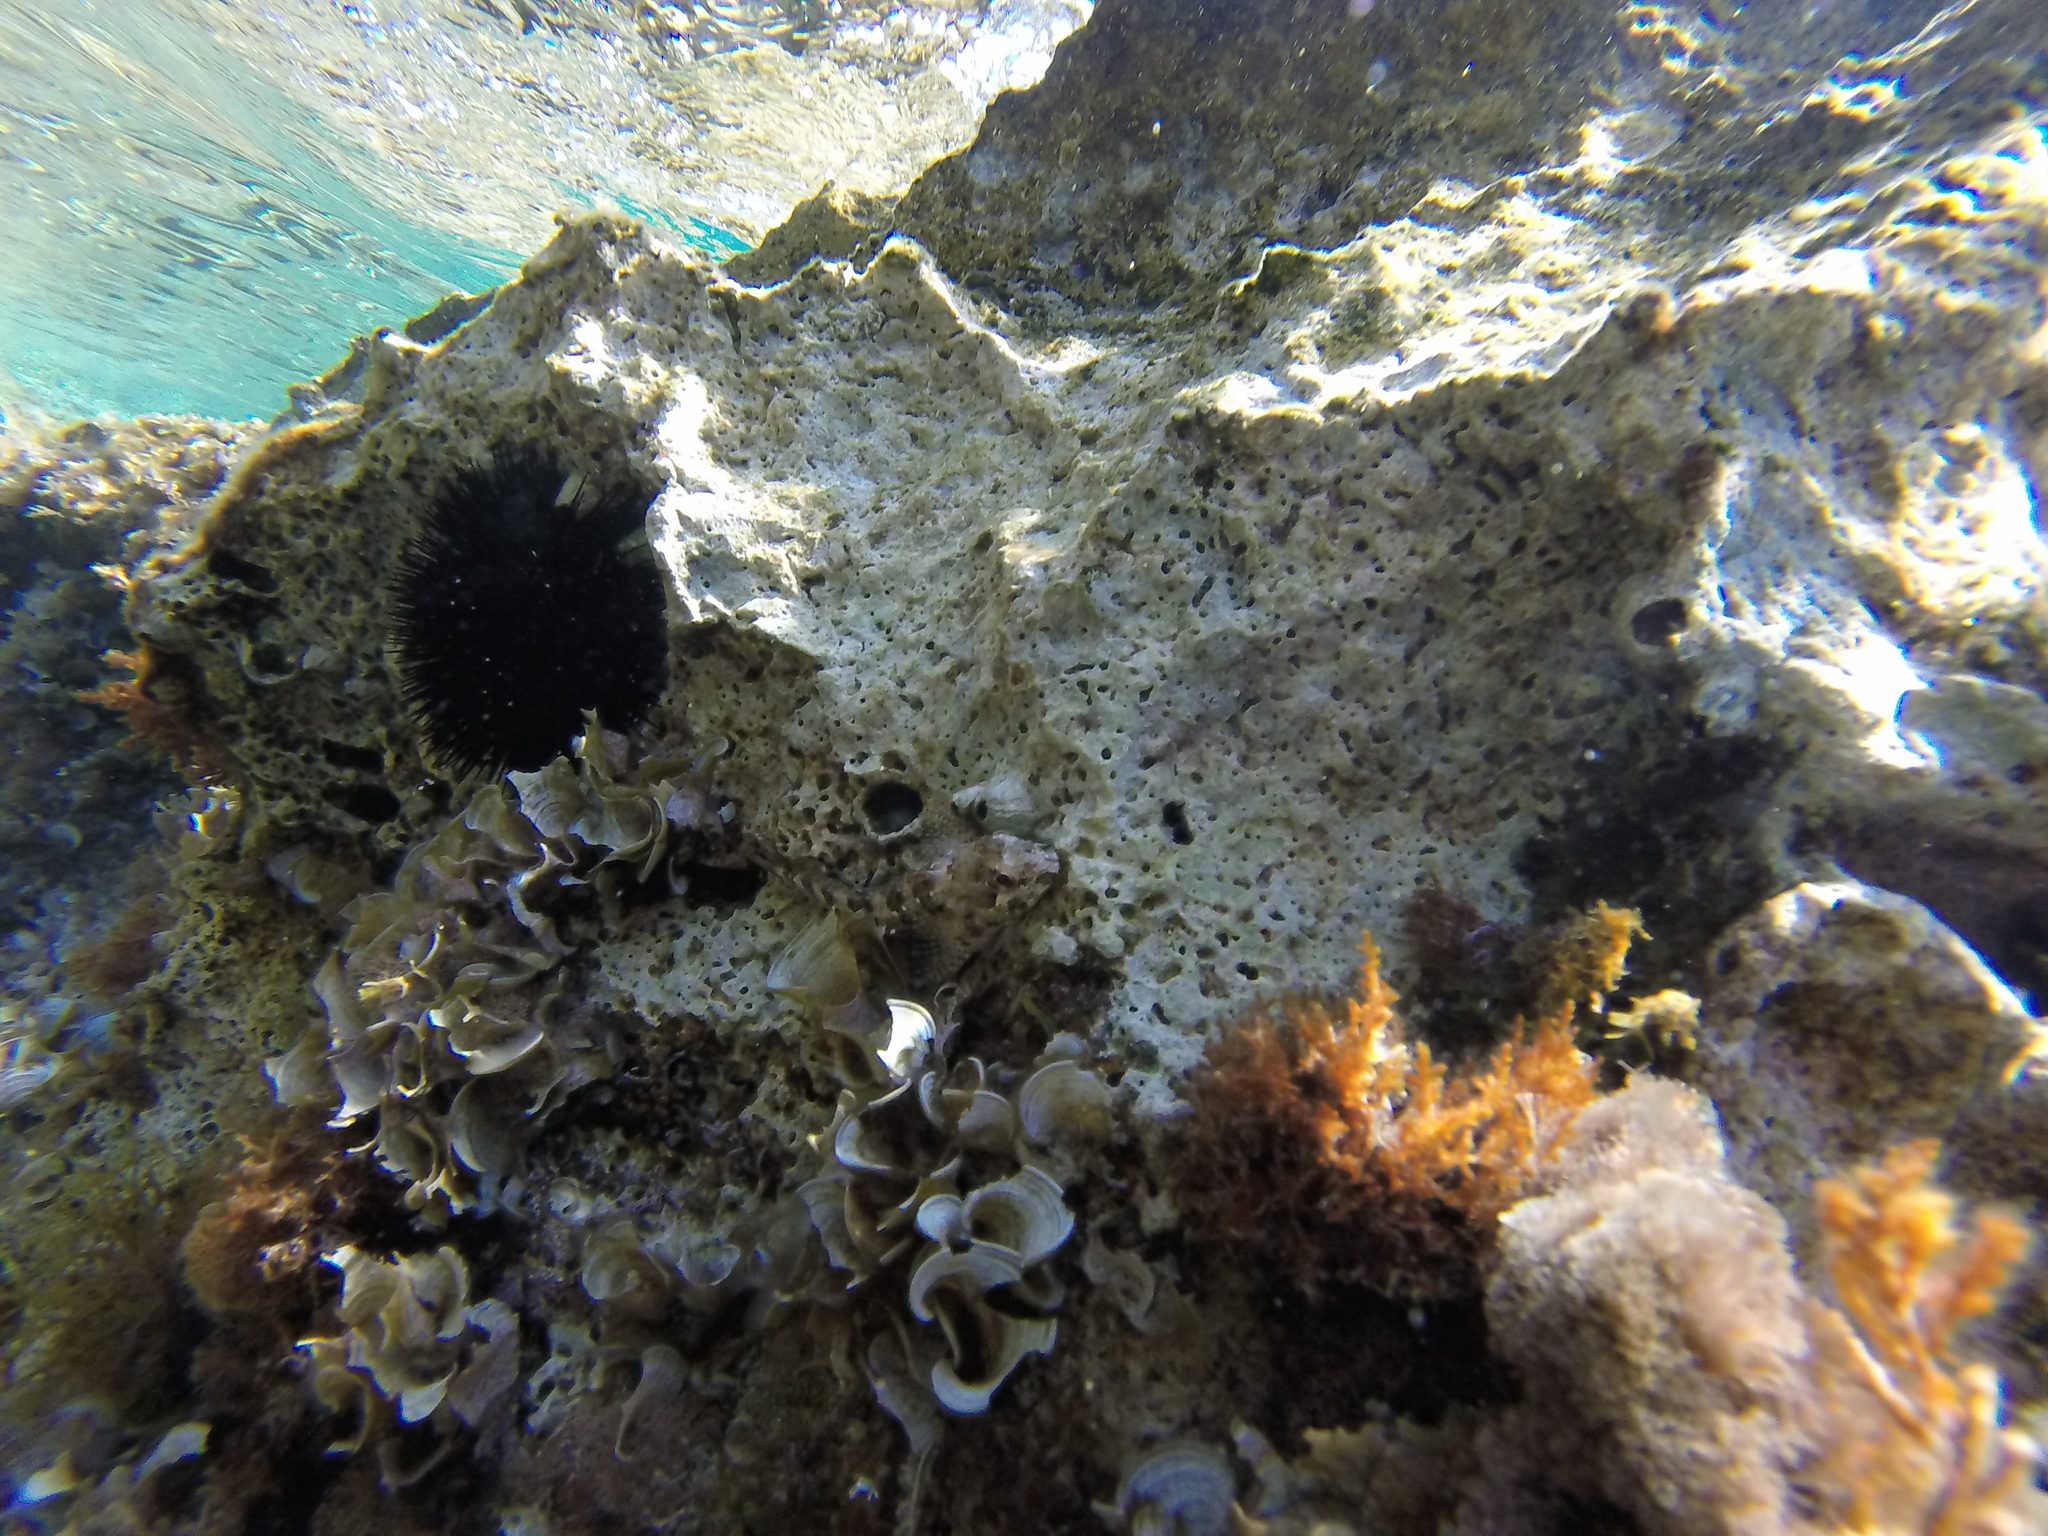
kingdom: Animalia
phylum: Chordata
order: Perciformes
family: Blenniidae
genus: Lipophrys
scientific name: Lipophrys trigloides
